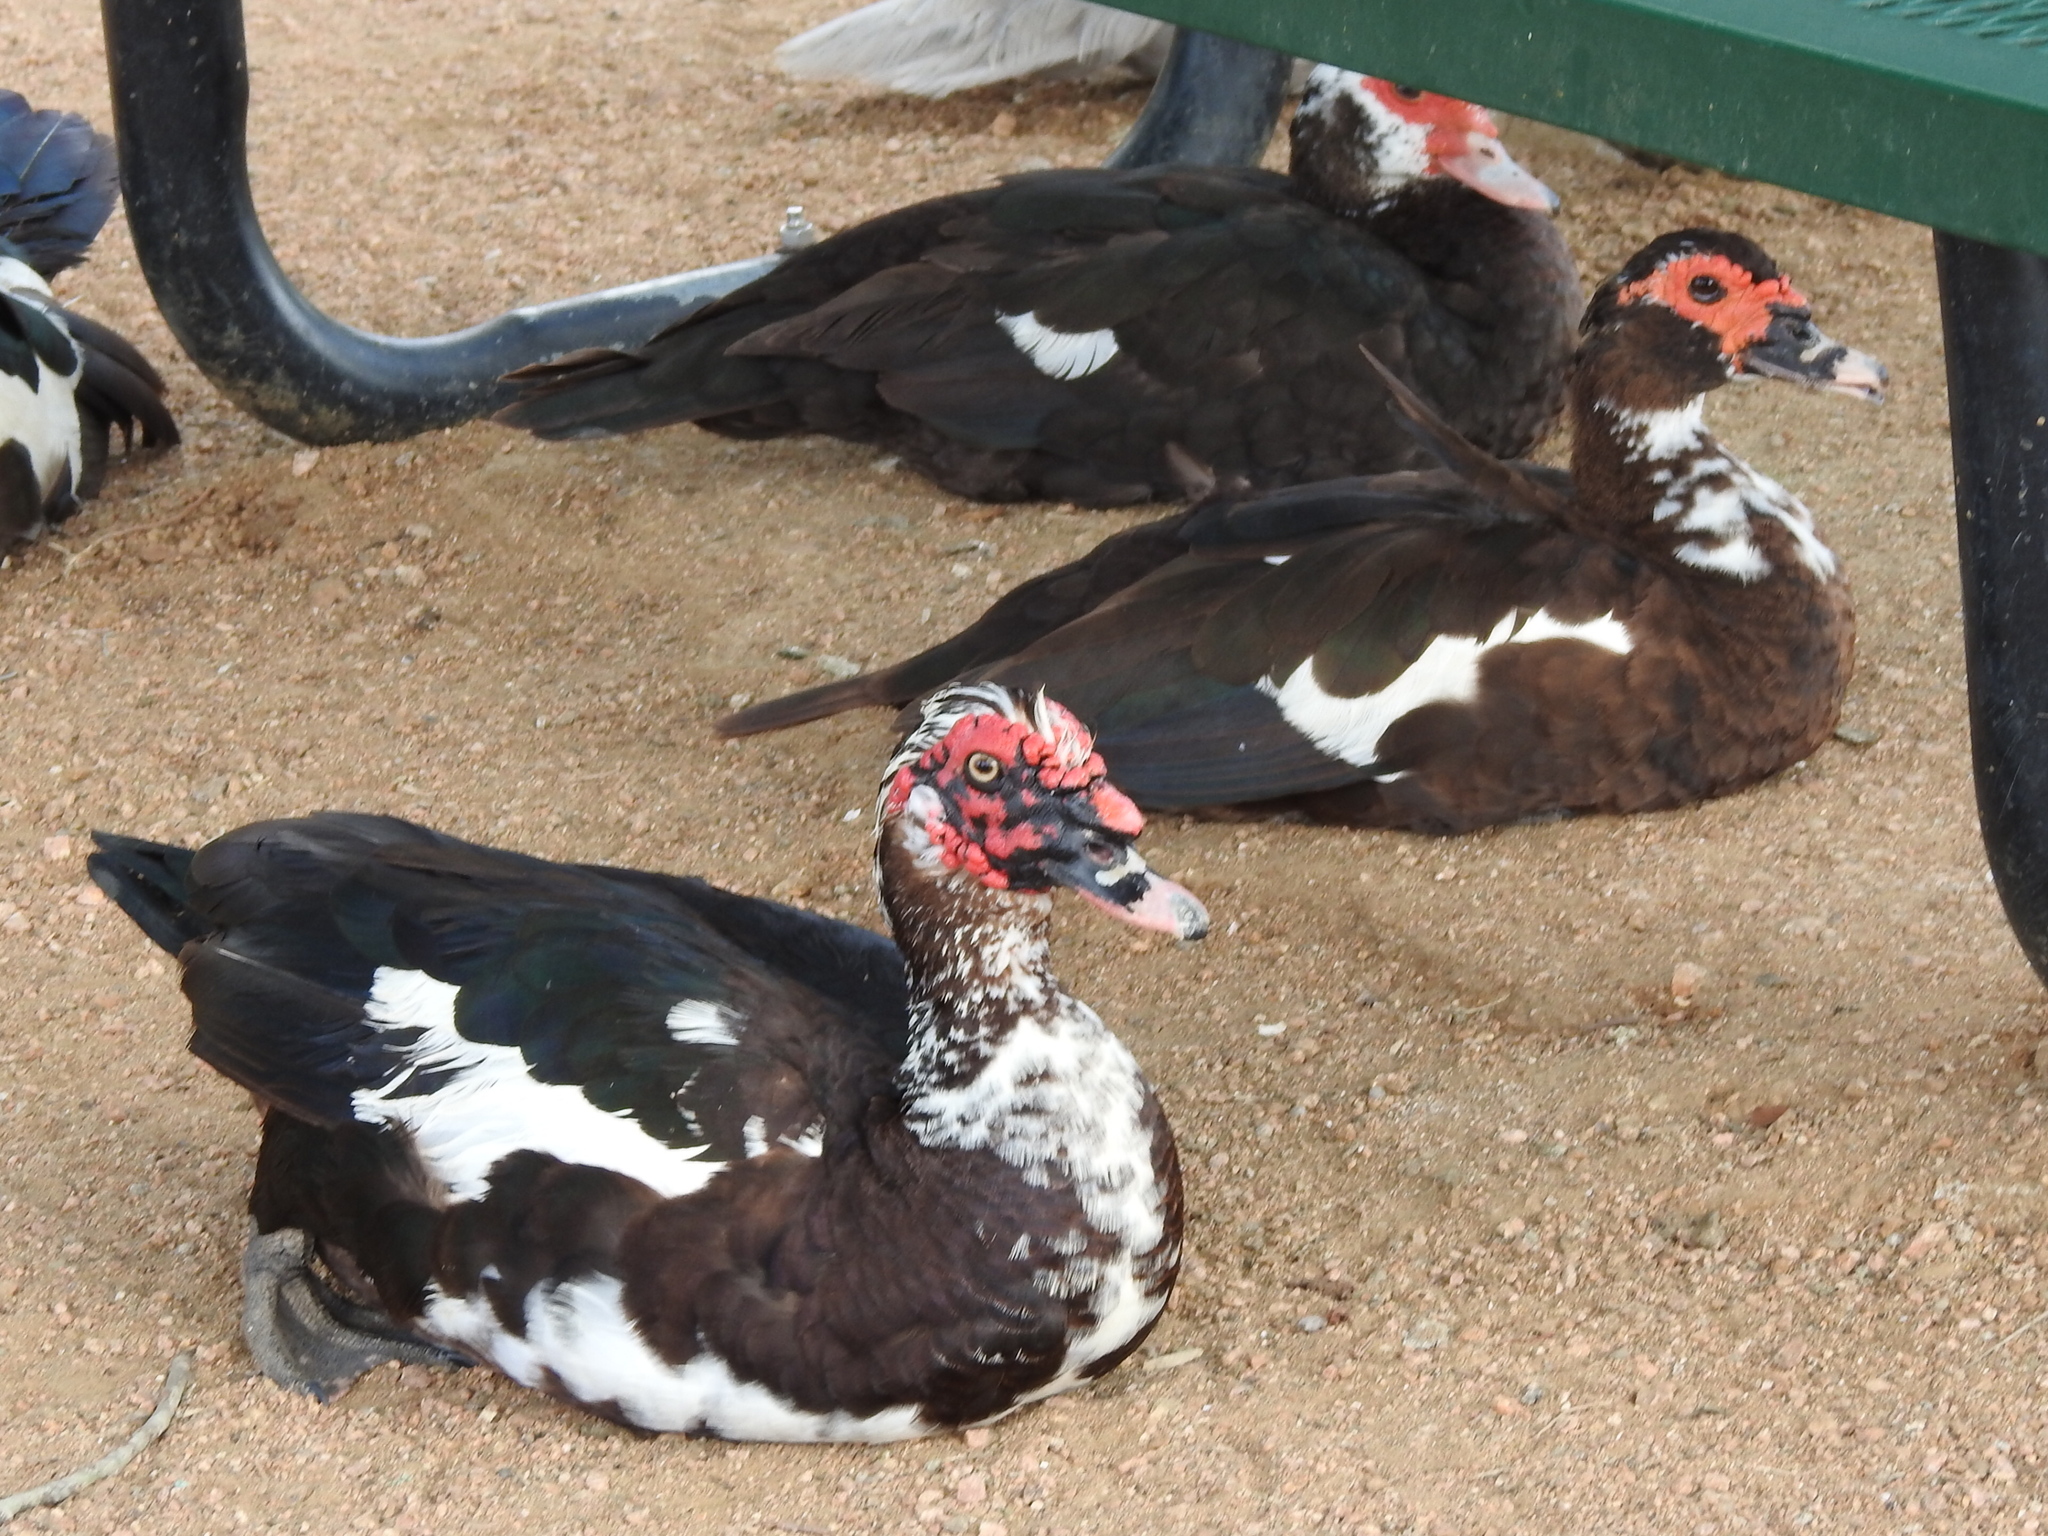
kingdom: Animalia
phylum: Chordata
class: Aves
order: Anseriformes
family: Anatidae
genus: Cairina
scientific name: Cairina moschata
